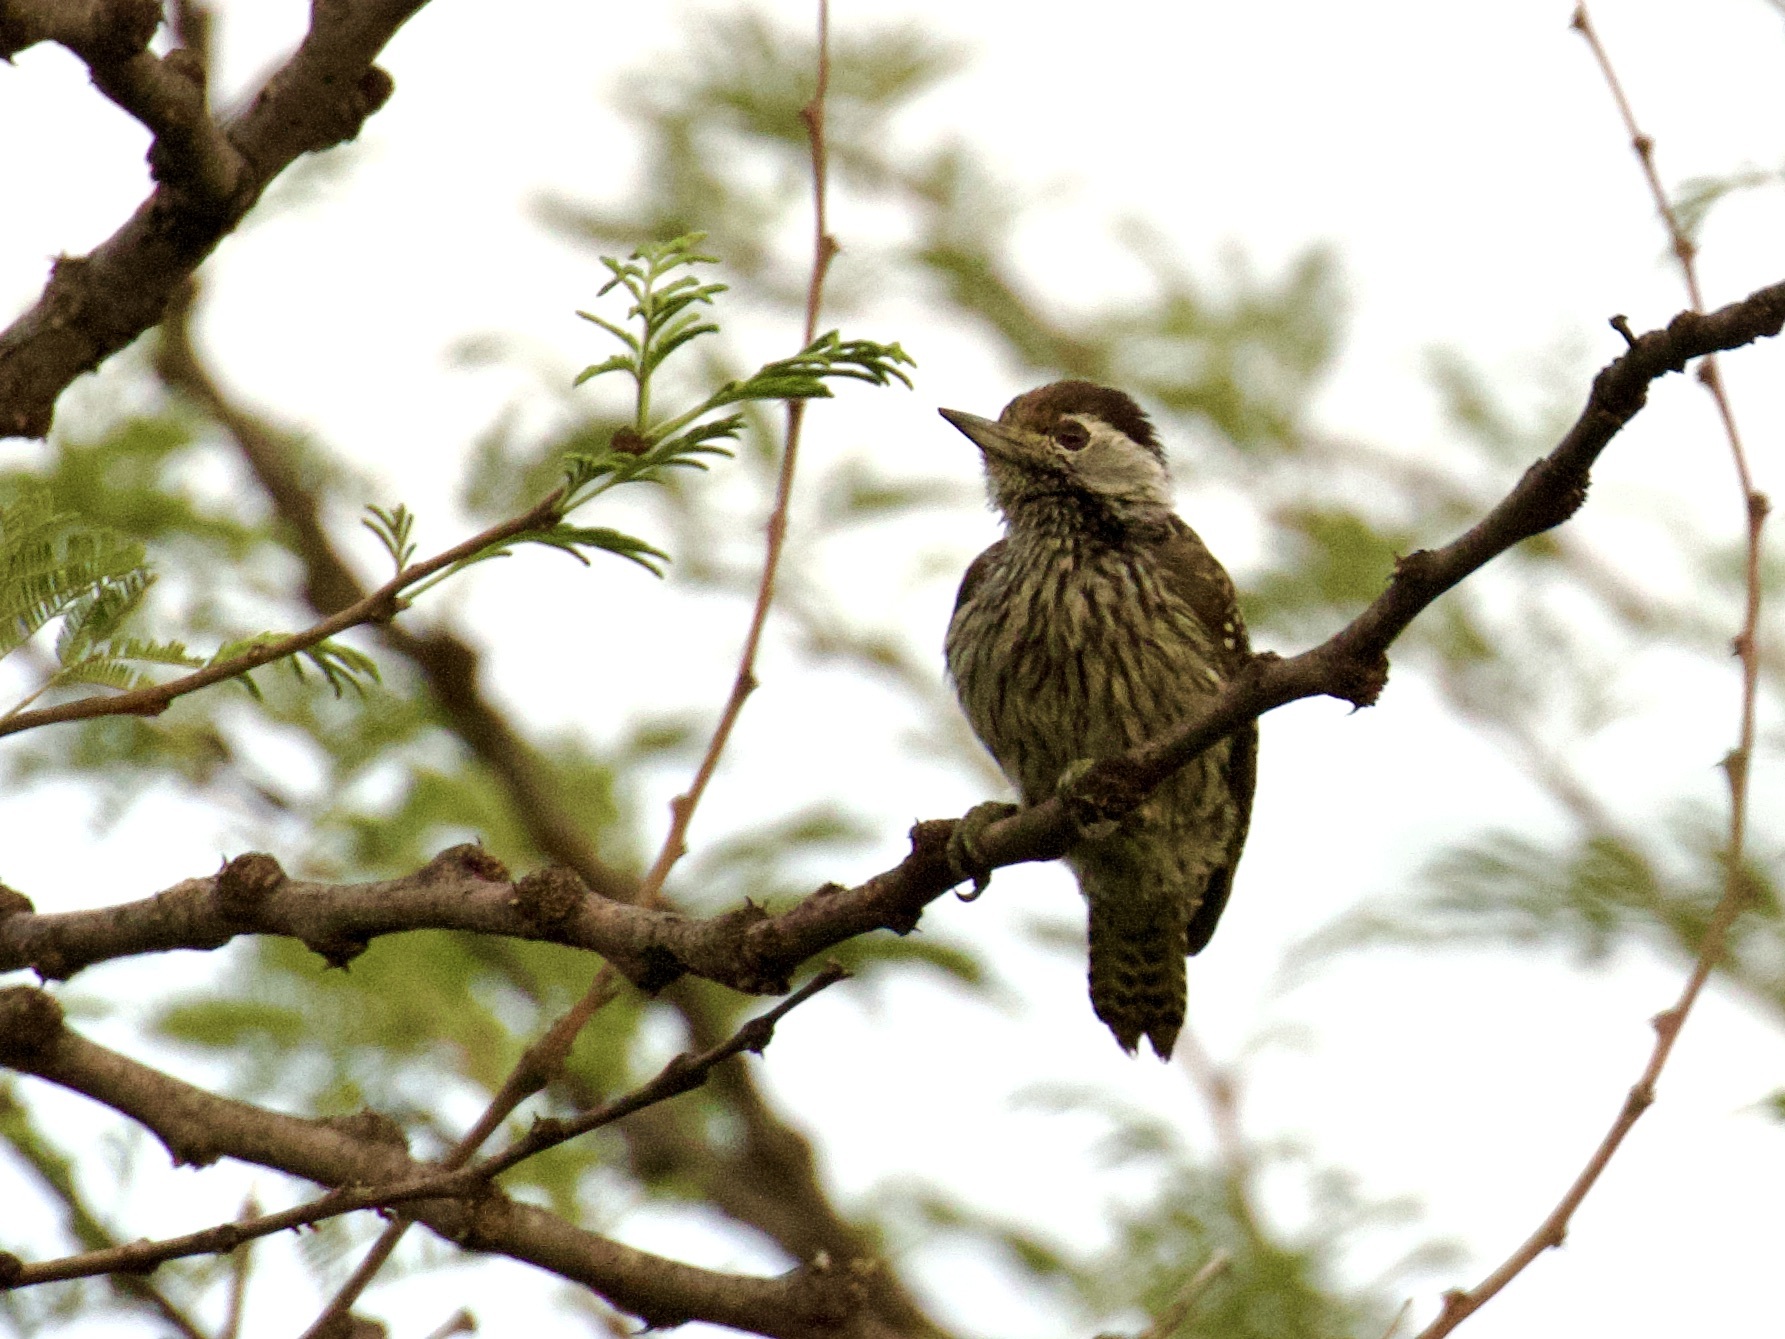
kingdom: Animalia
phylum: Chordata
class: Aves
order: Piciformes
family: Picidae
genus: Dendropicos
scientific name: Dendropicos fuscescens
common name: Cardinal woodpecker
